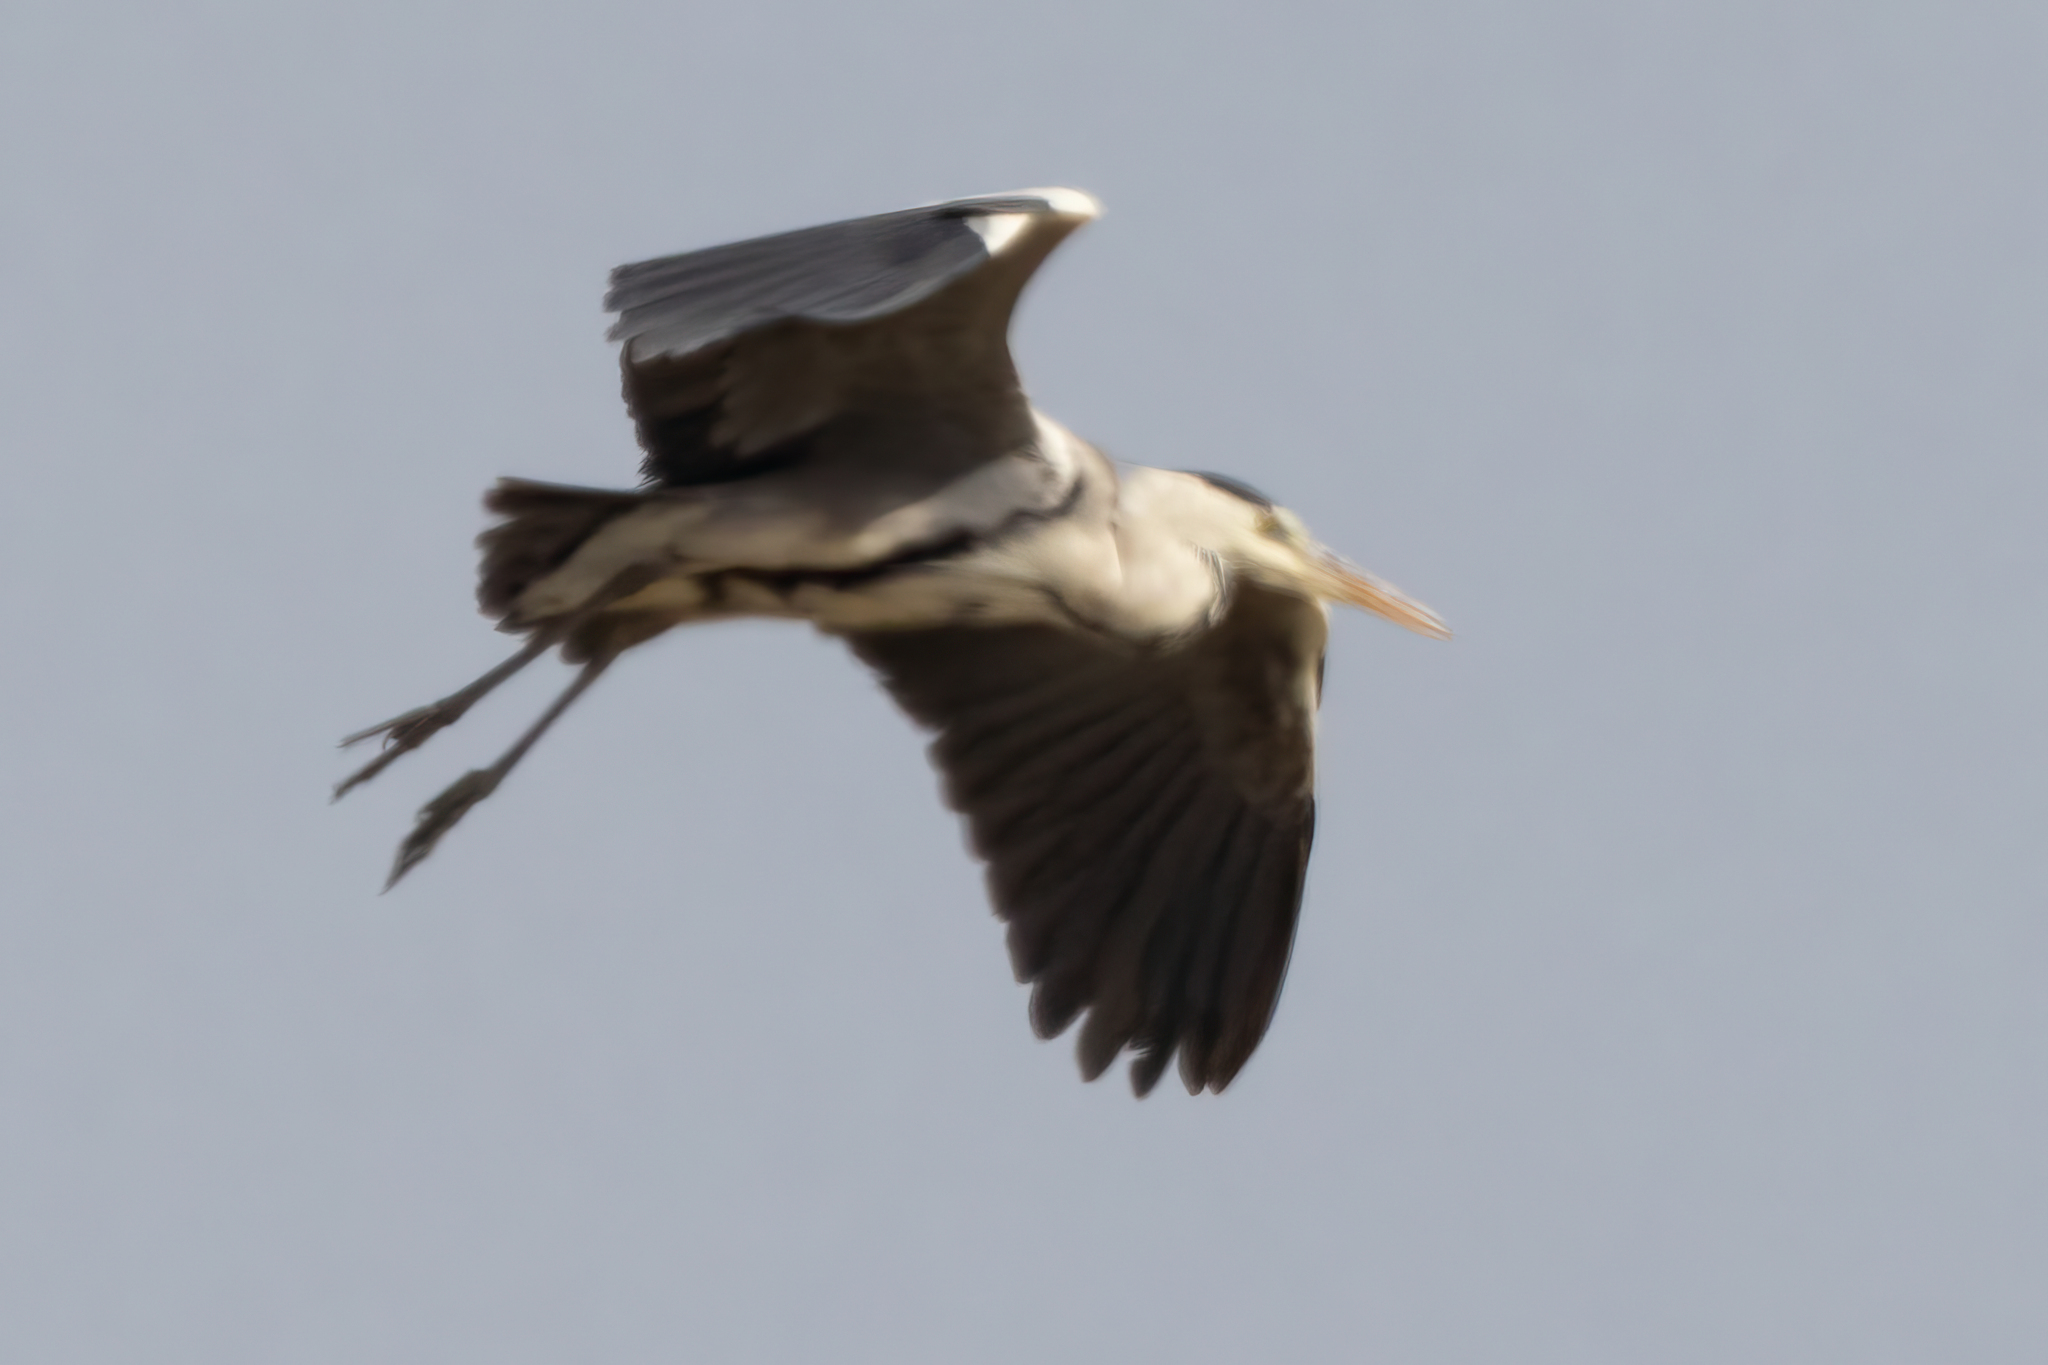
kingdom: Animalia
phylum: Chordata
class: Aves
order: Pelecaniformes
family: Ardeidae
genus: Ardea
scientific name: Ardea cinerea
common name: Grey heron
